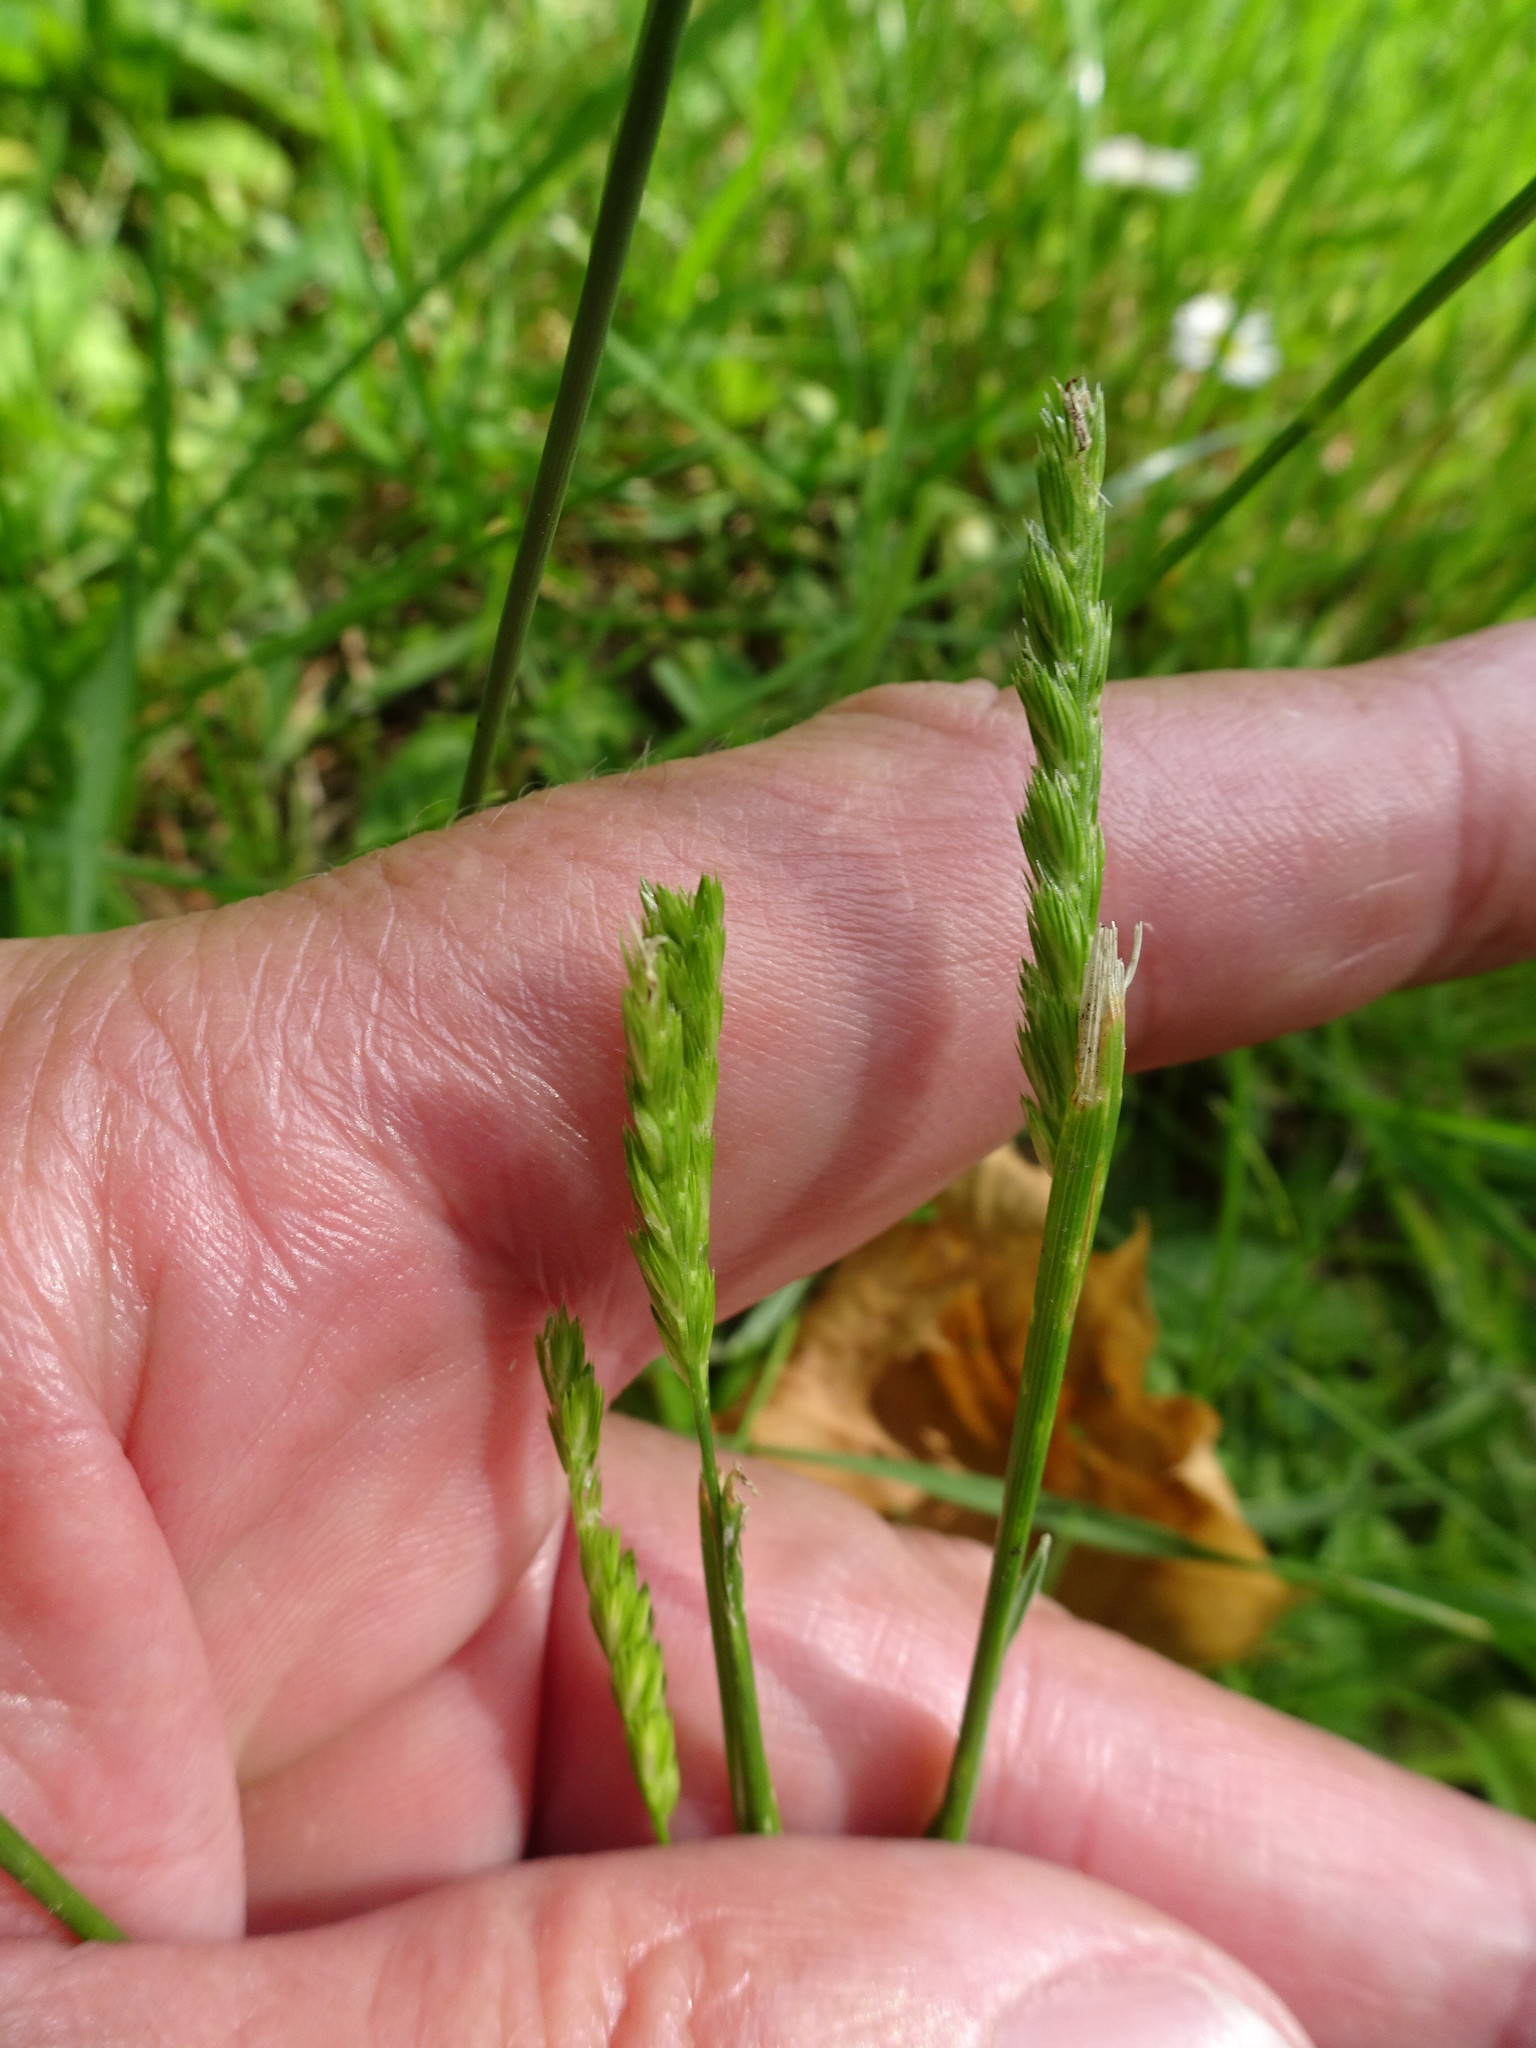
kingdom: Plantae
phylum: Tracheophyta
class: Liliopsida
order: Poales
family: Poaceae
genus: Cynosurus
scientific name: Cynosurus cristatus
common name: Crested dog's-tail
